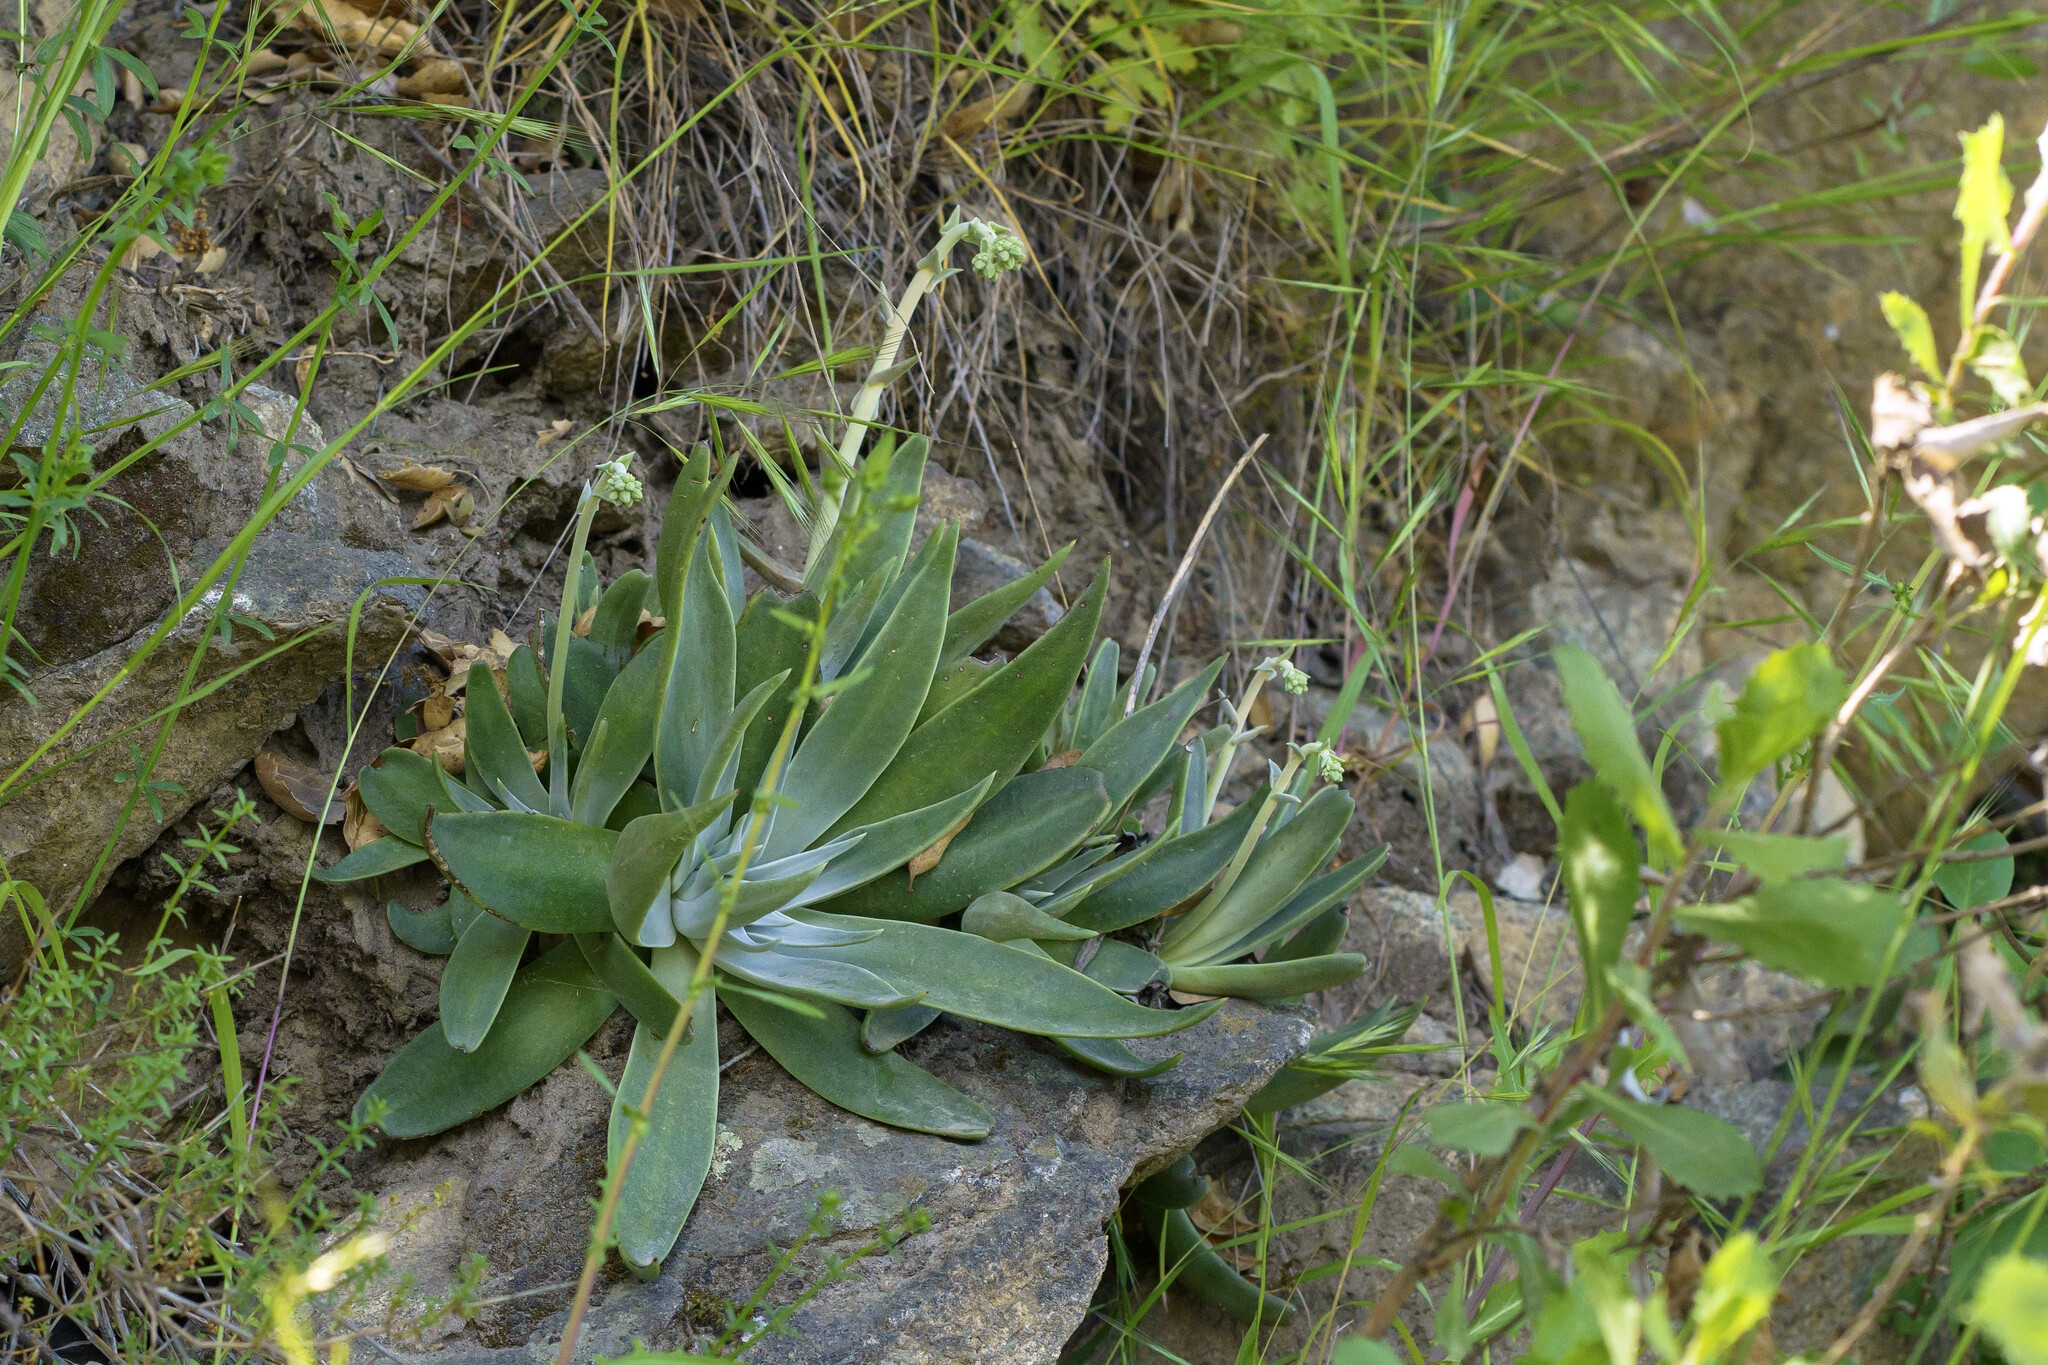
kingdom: Plantae
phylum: Tracheophyta
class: Magnoliopsida
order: Saxifragales
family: Crassulaceae
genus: Dudleya
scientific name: Dudleya saxosa
